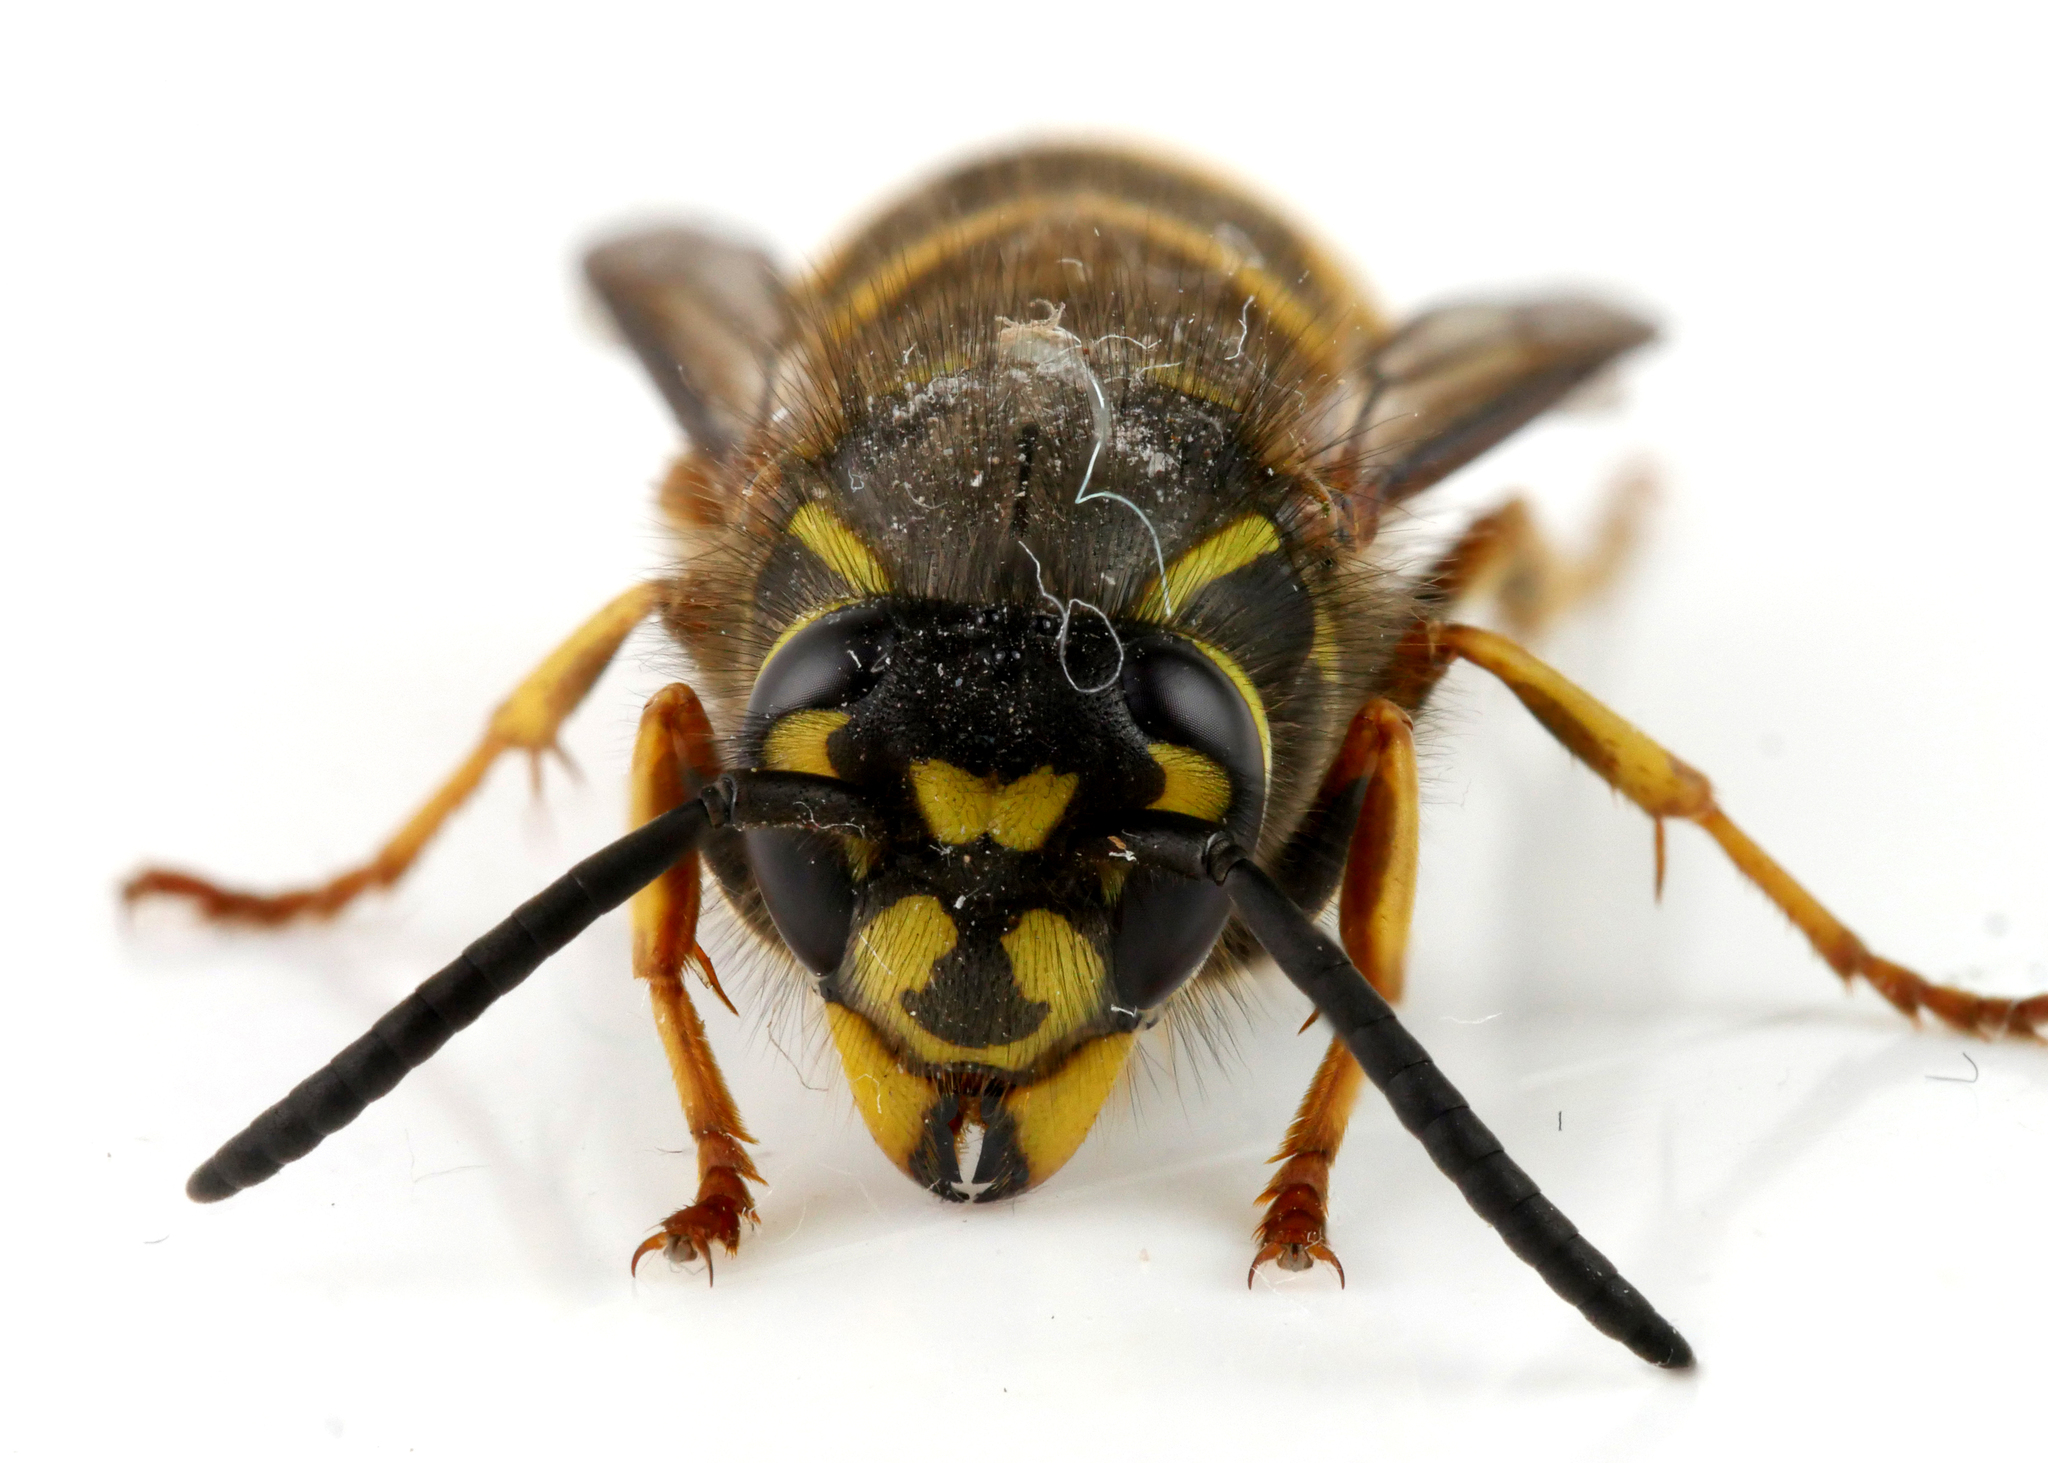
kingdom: Animalia
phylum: Arthropoda
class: Insecta
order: Hymenoptera
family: Vespidae
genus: Vespula
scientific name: Vespula vulgaris
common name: Common wasp
